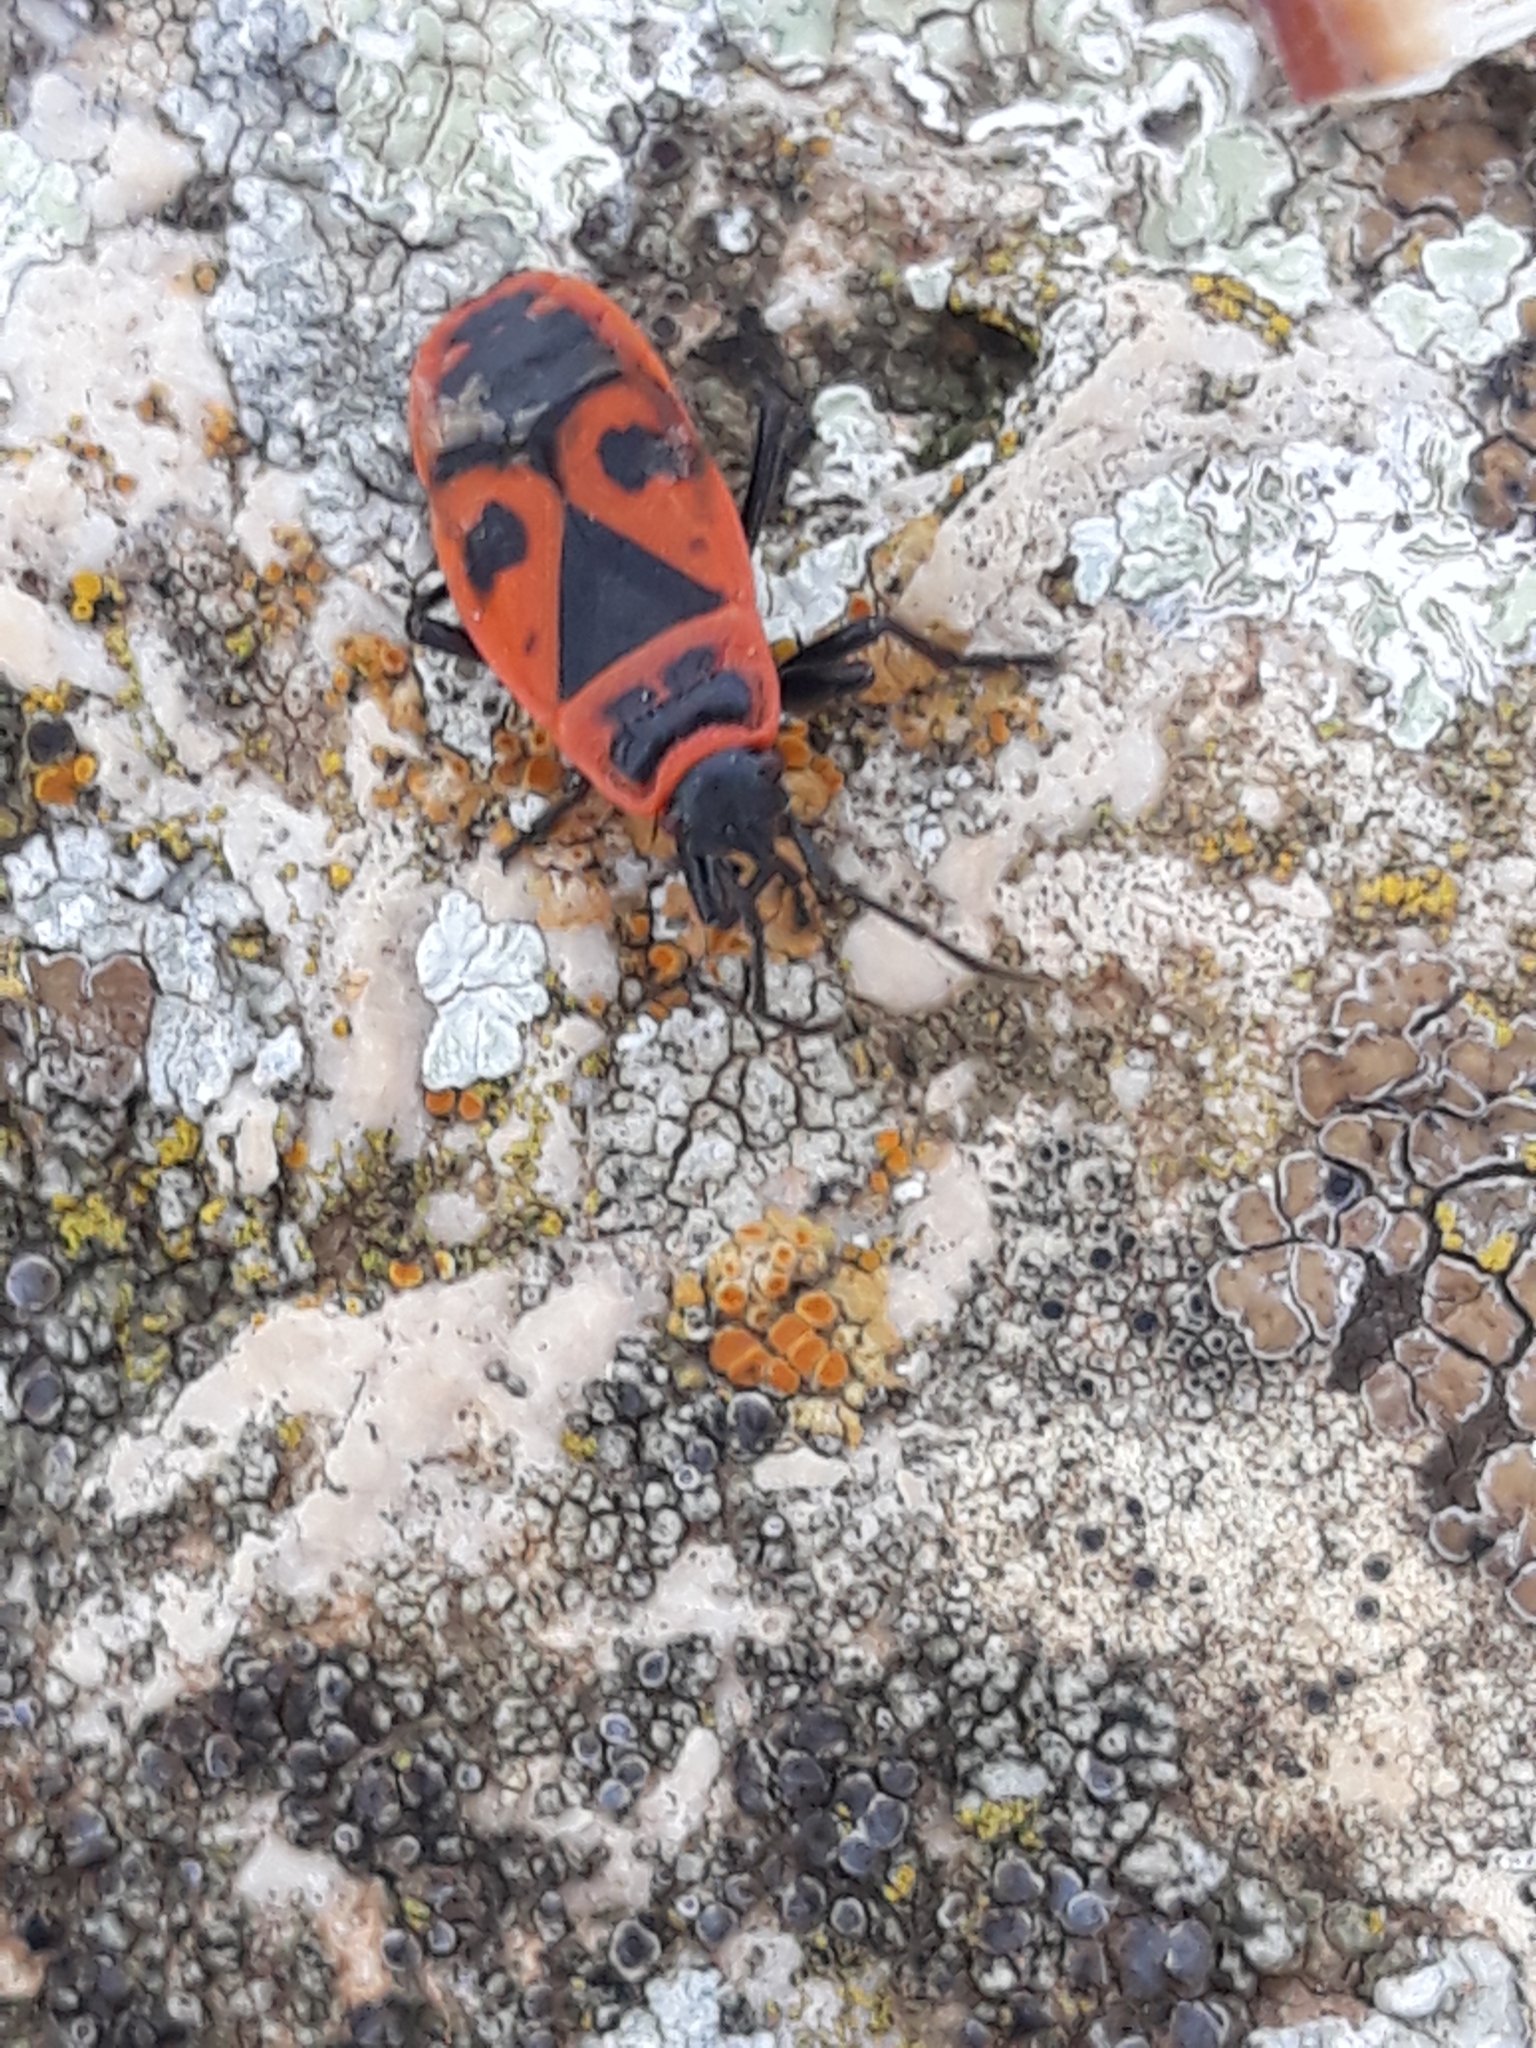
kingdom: Animalia
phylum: Arthropoda
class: Insecta
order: Hemiptera
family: Pyrrhocoridae
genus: Pyrrhocoris
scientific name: Pyrrhocoris apterus
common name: Firebug
